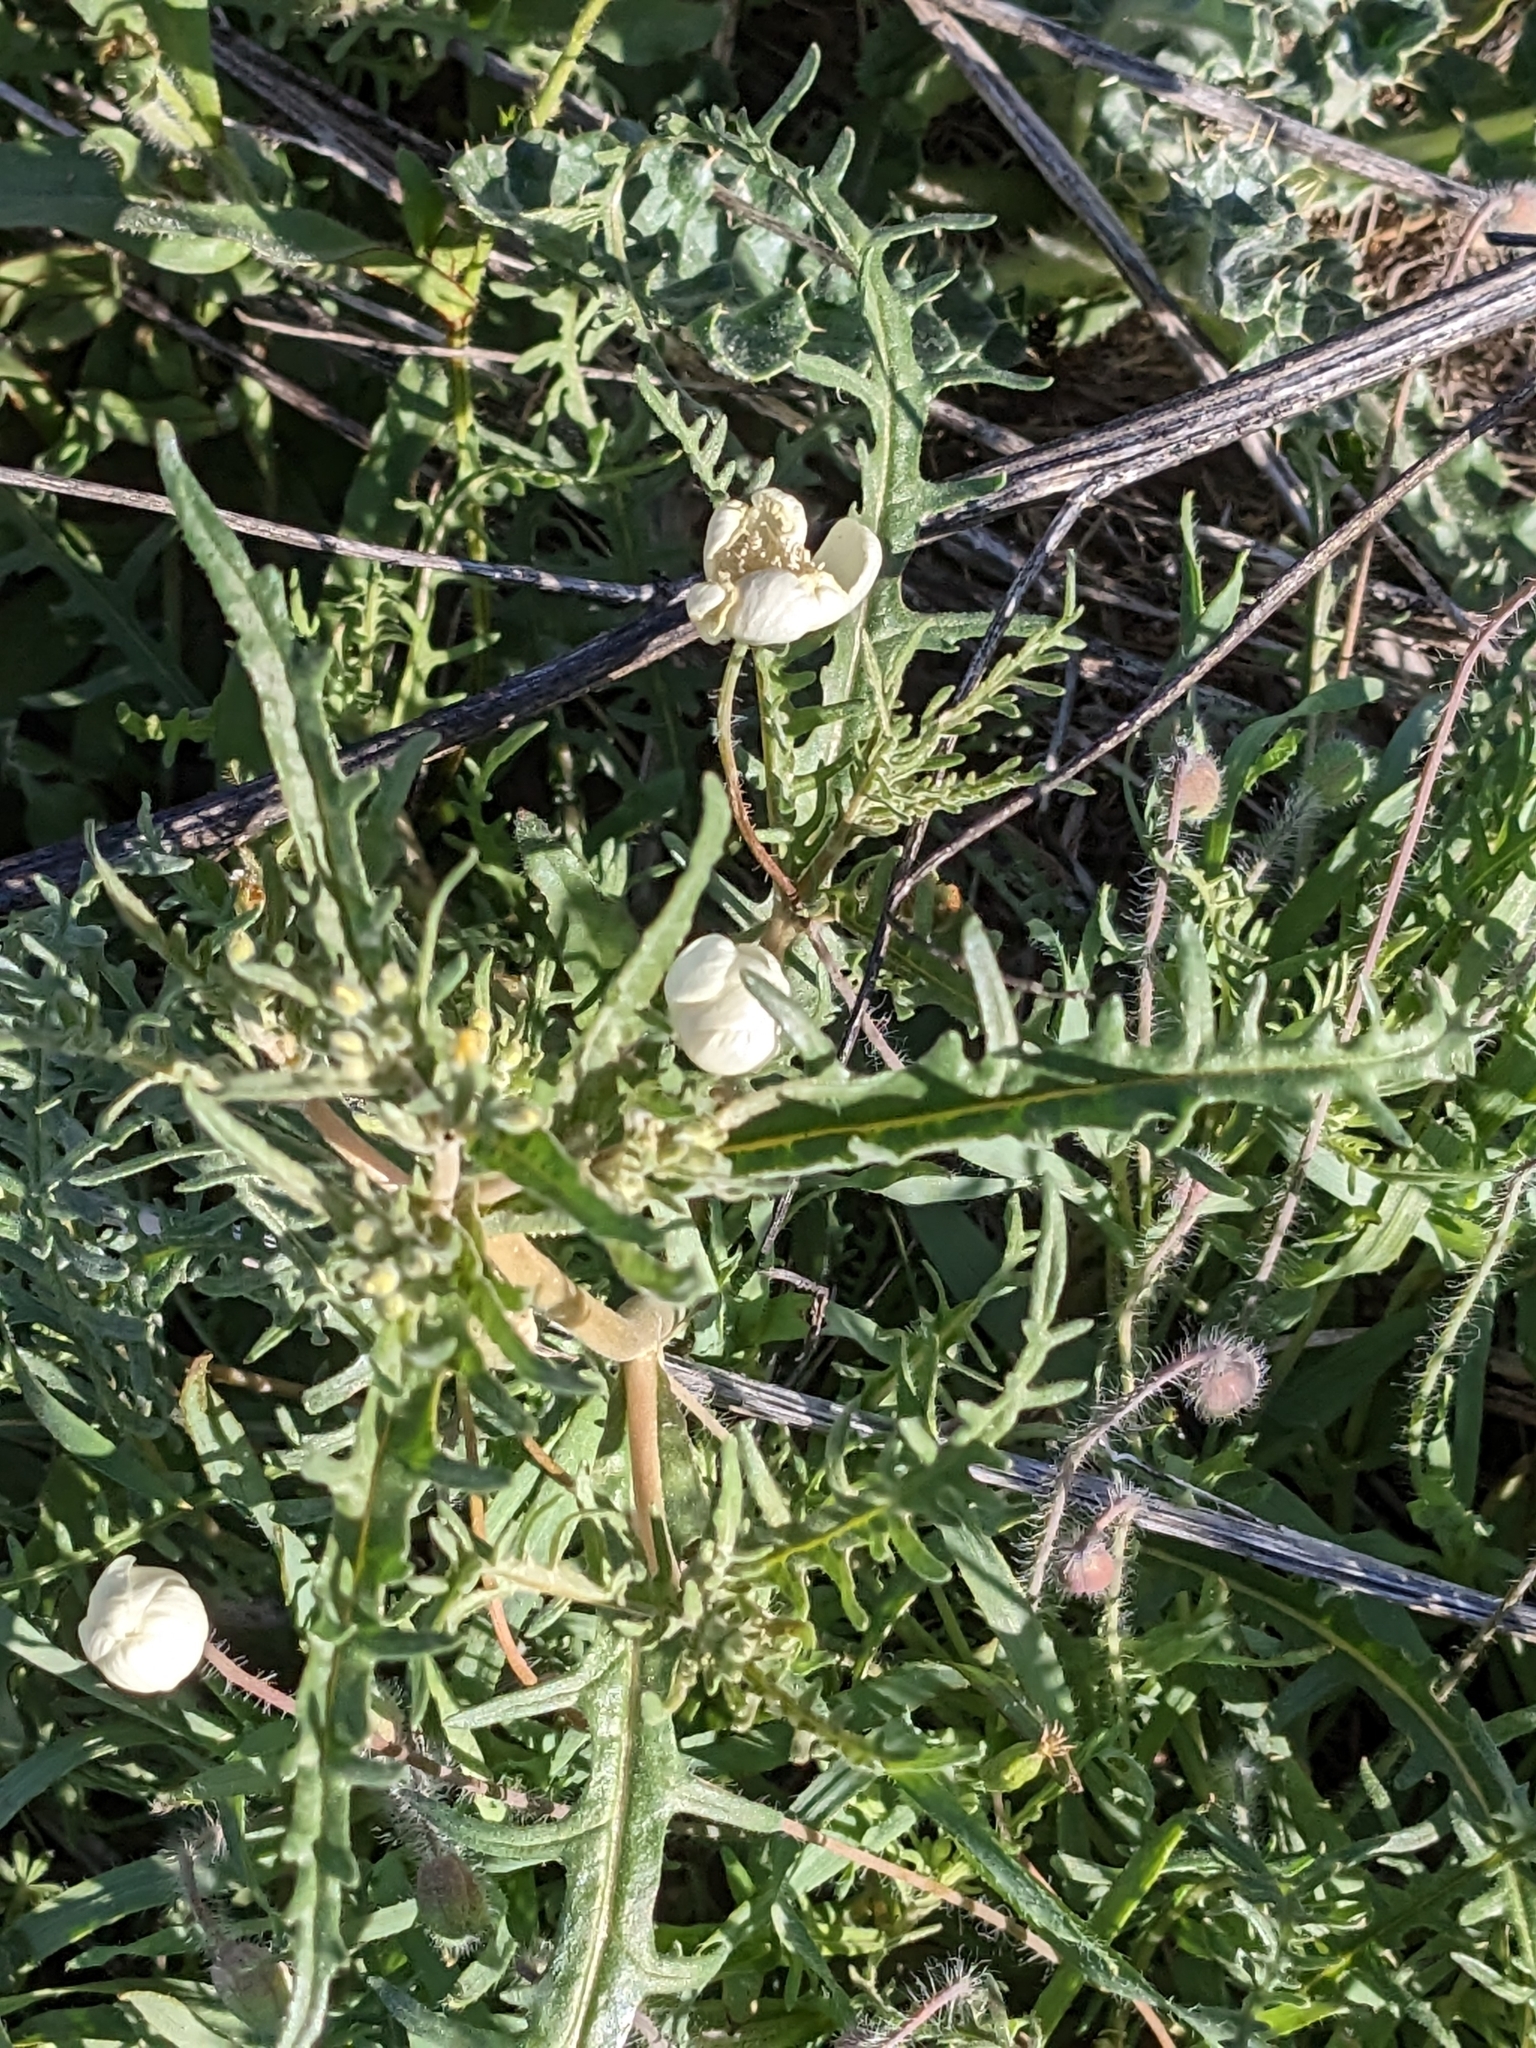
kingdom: Plantae
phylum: Tracheophyta
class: Magnoliopsida
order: Ranunculales
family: Papaveraceae
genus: Platystemon
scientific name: Platystemon californicus
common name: Cream-cups
